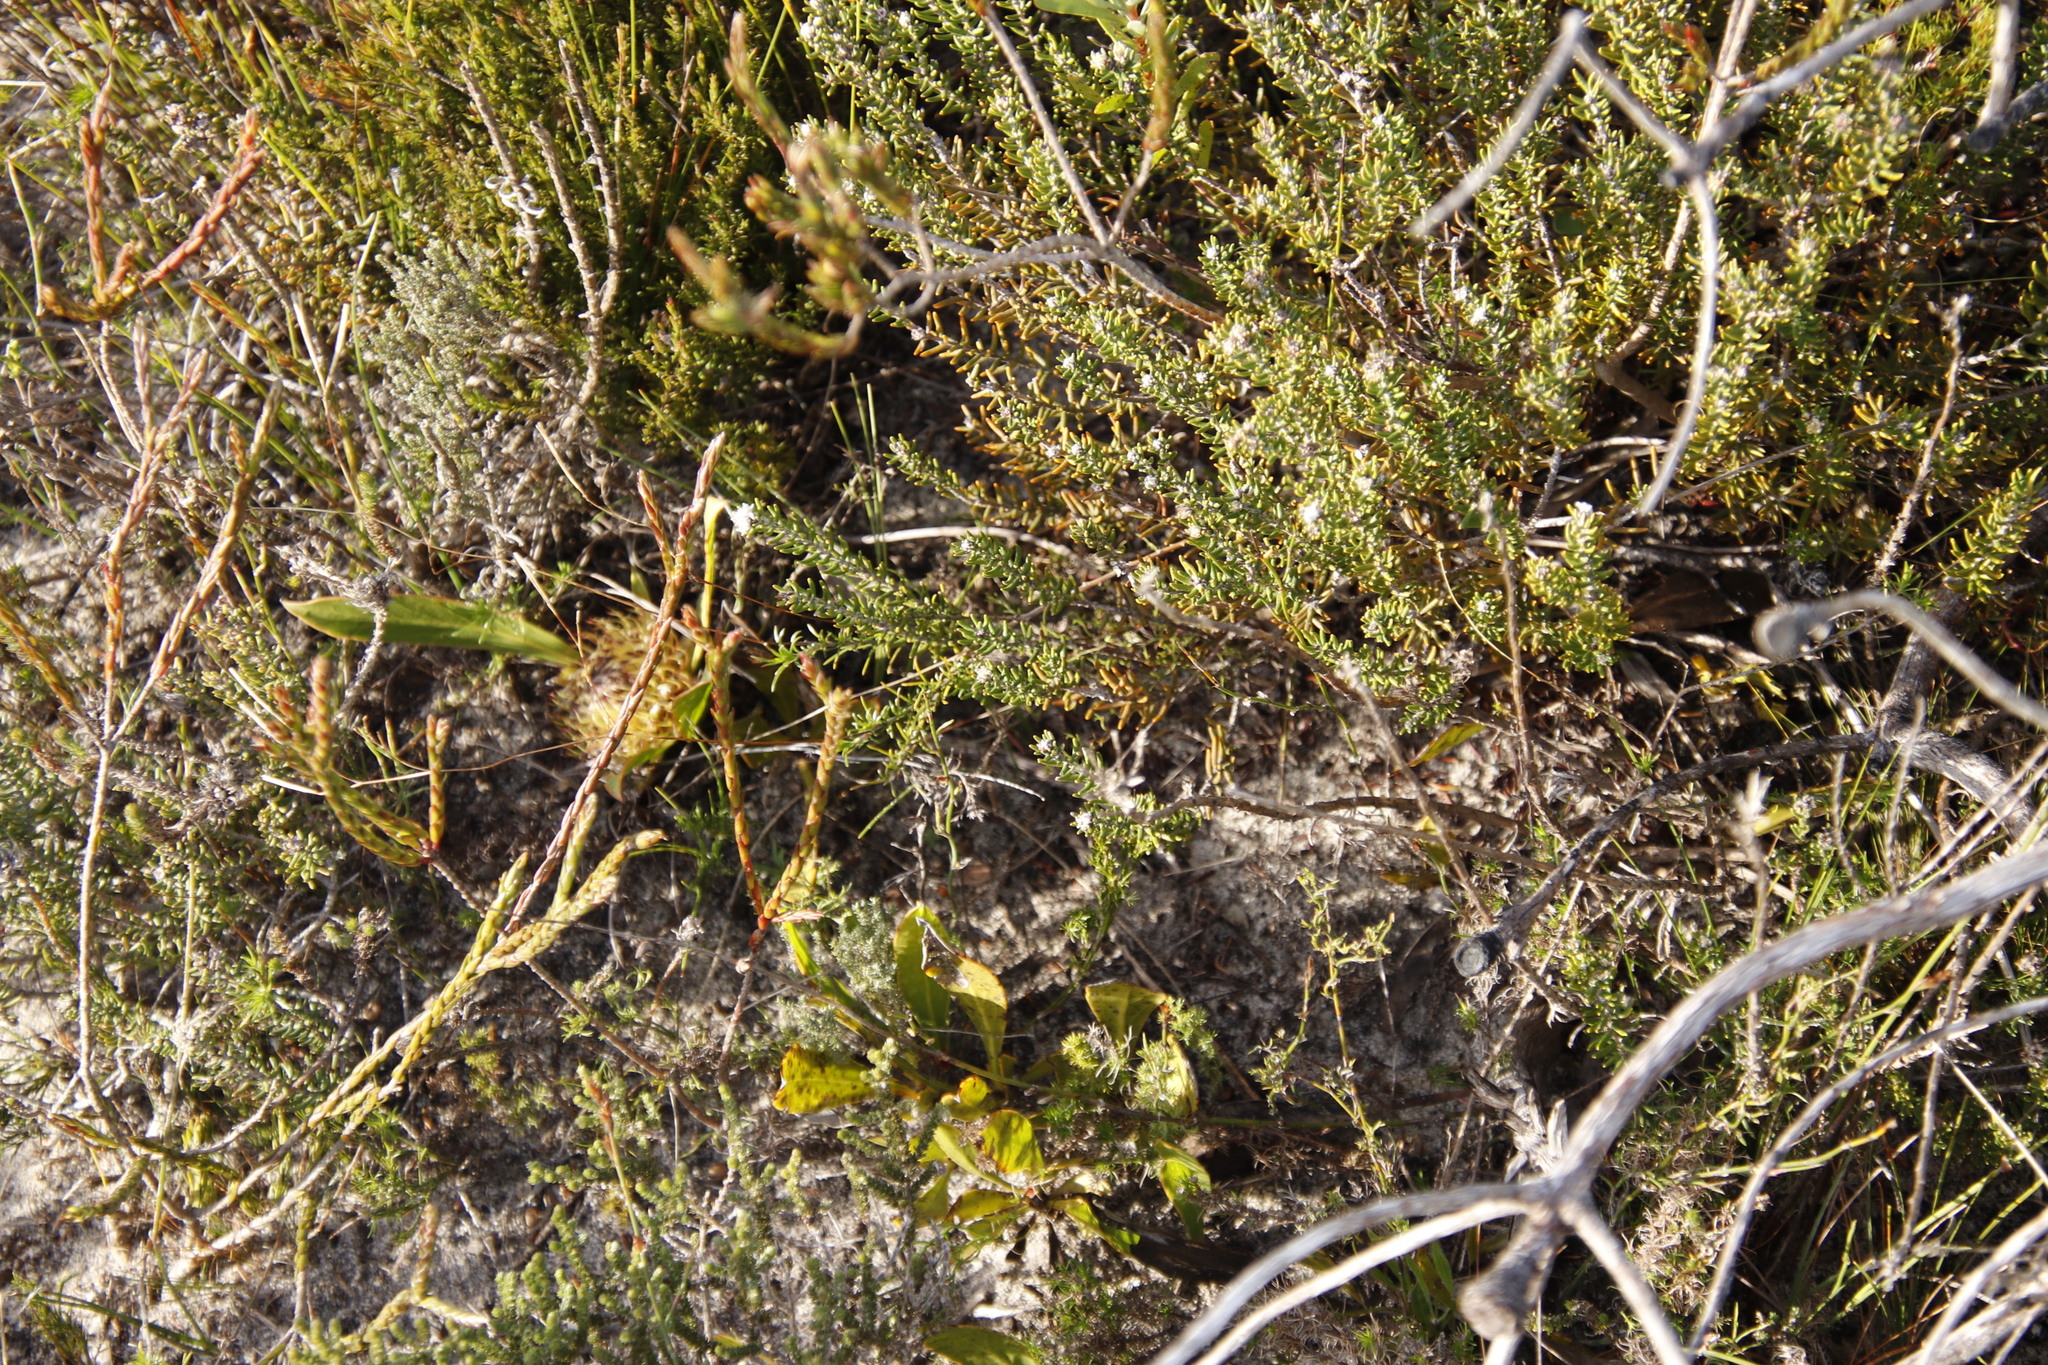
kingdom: Plantae
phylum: Tracheophyta
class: Magnoliopsida
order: Proteales
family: Proteaceae
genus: Protea
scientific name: Protea acaulos
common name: Common ground sugarbush
